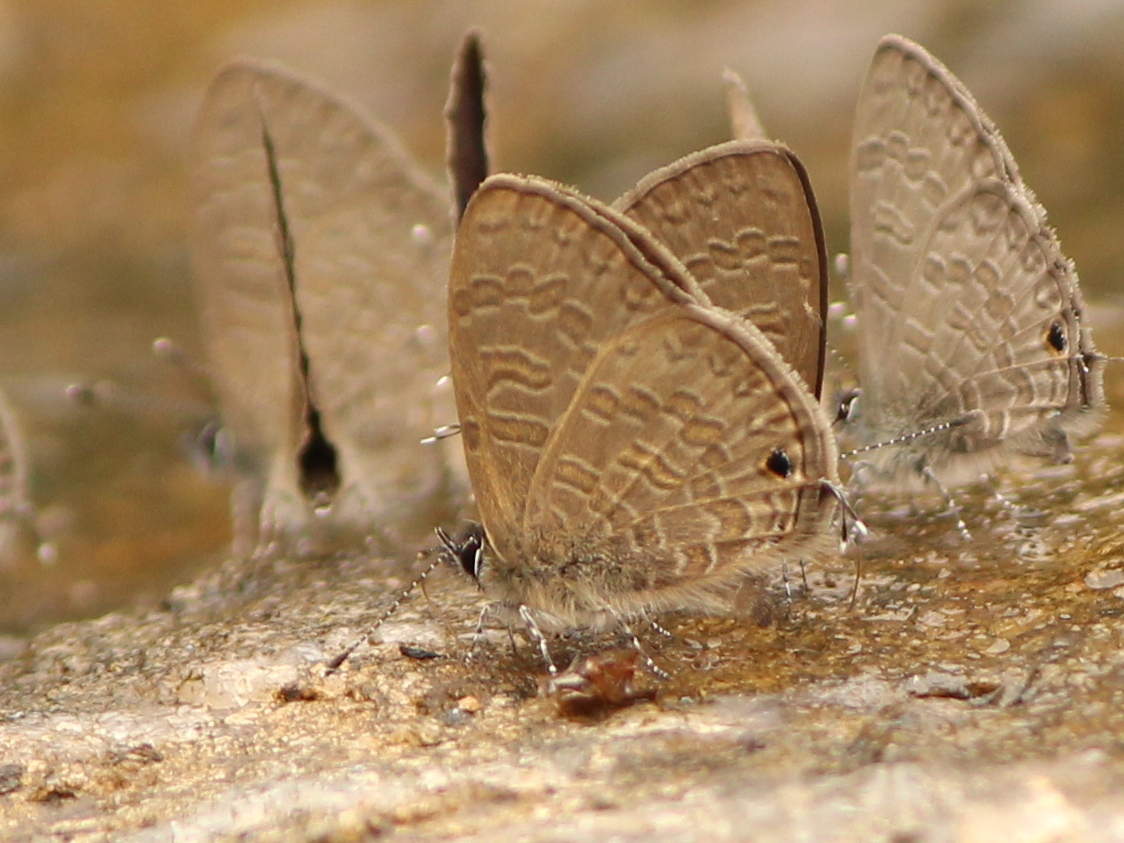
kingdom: Animalia
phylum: Arthropoda
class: Insecta
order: Lepidoptera
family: Lycaenidae
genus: Prosotas
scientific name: Prosotas nora
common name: Common line blue
